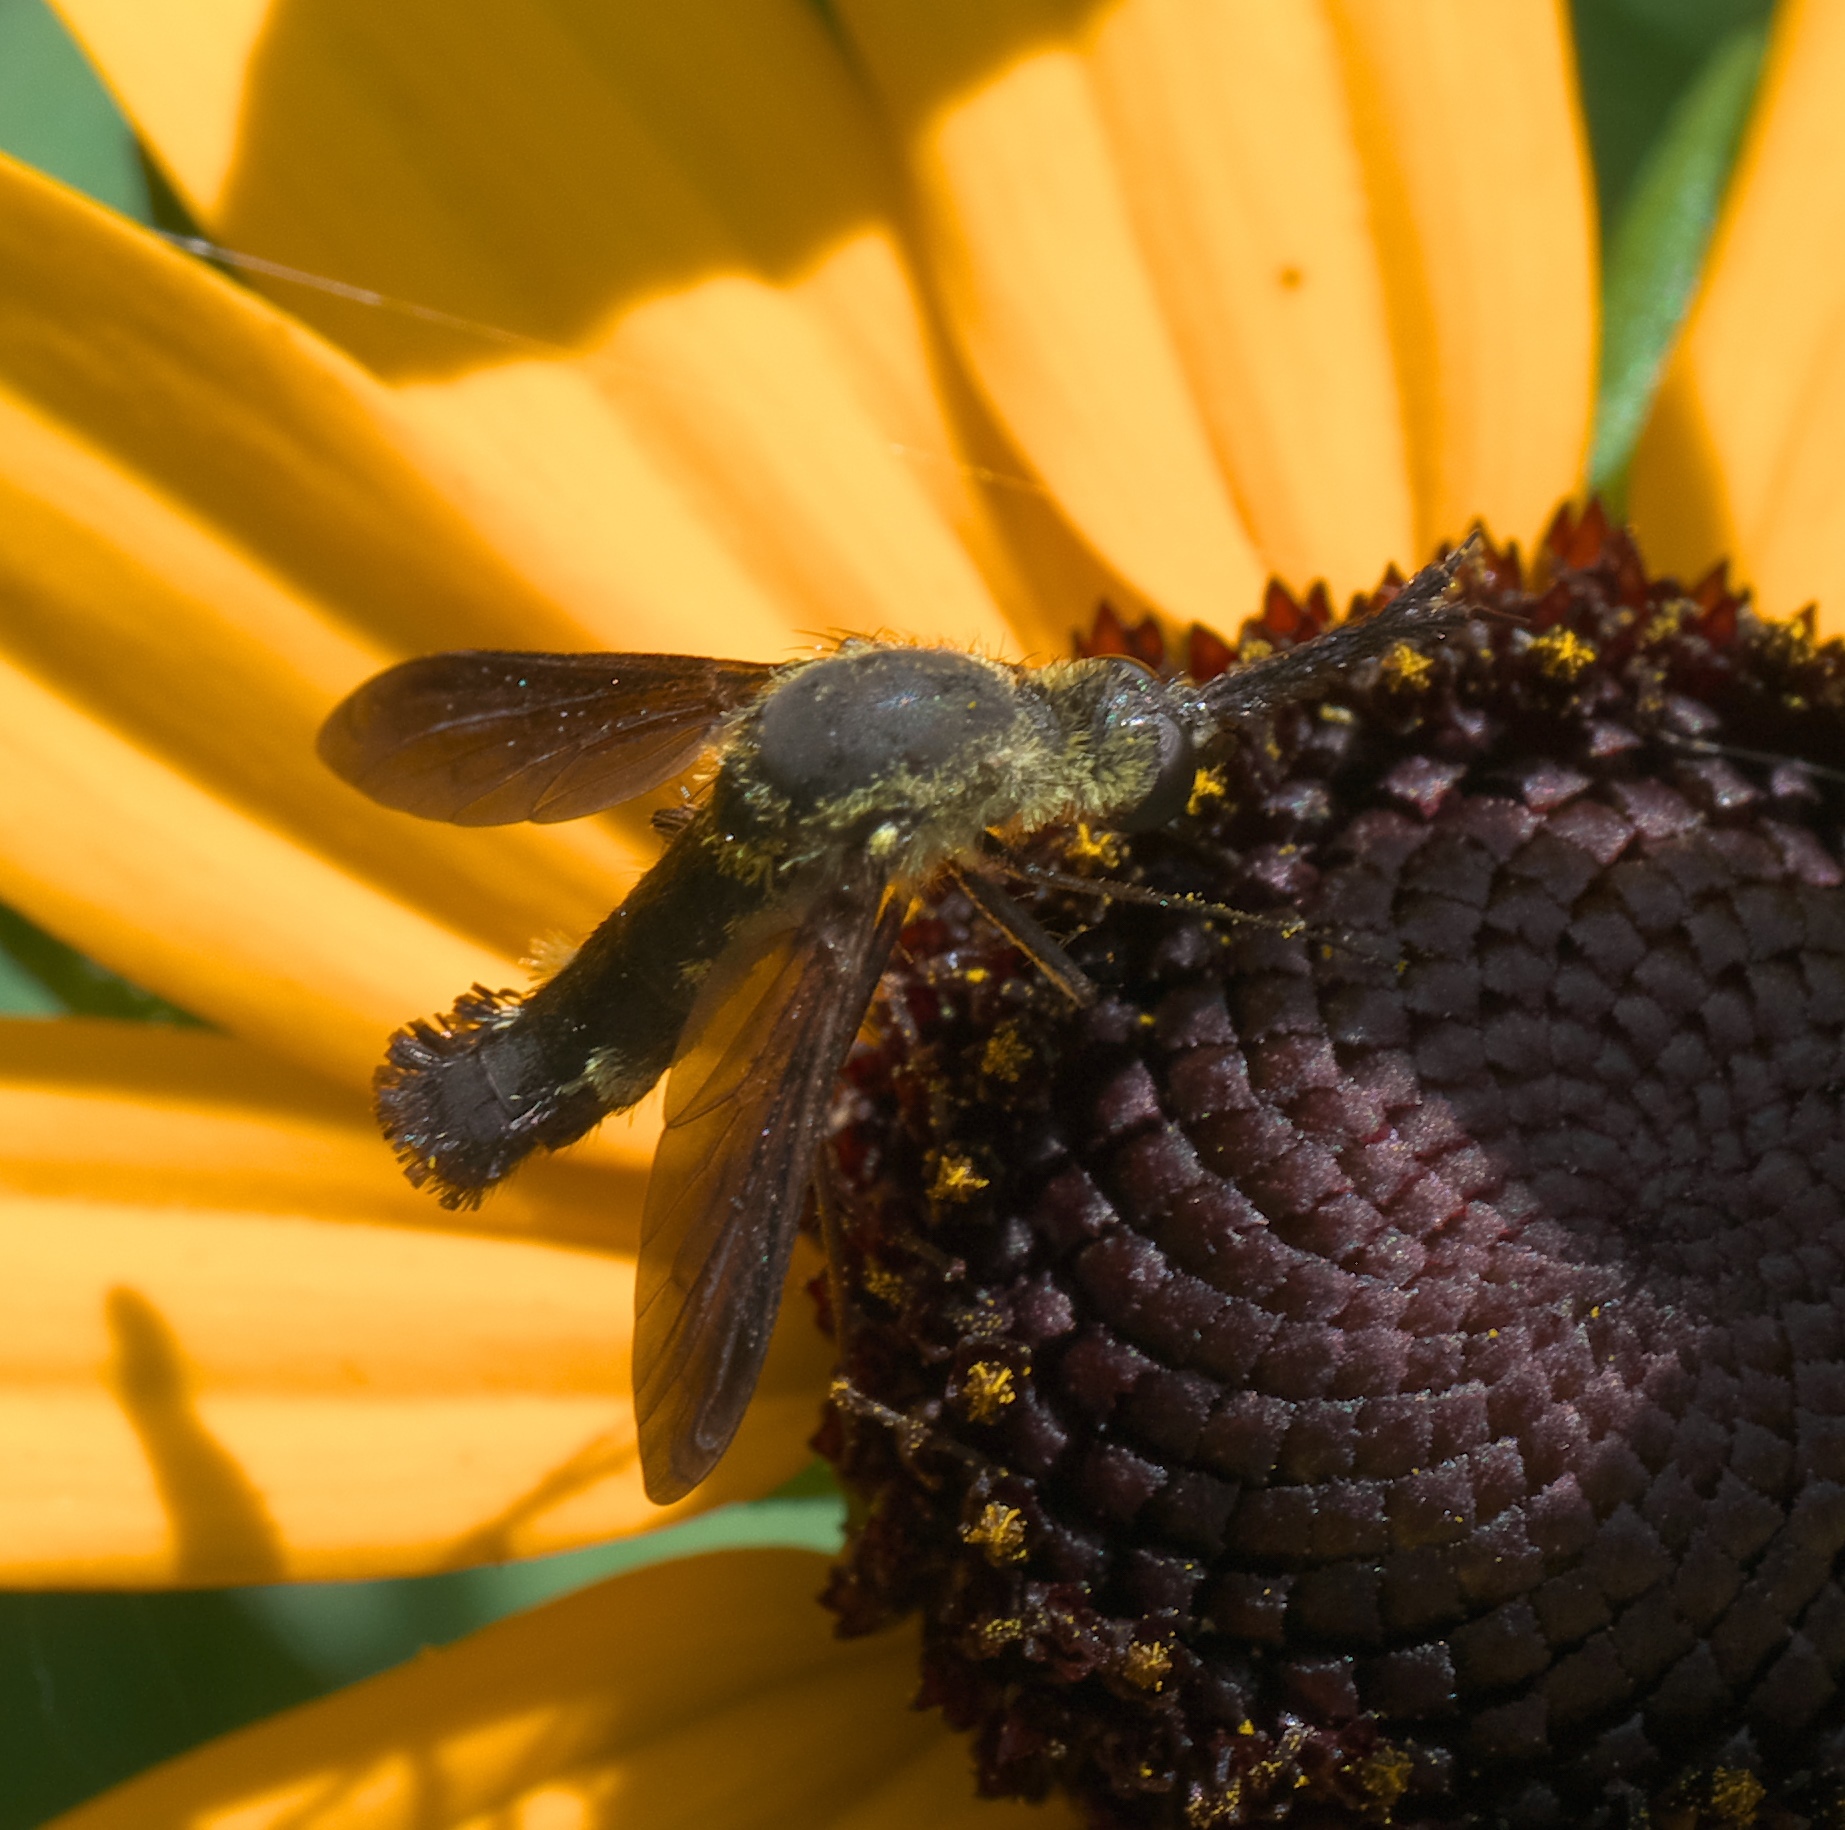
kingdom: Animalia
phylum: Arthropoda
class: Insecta
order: Diptera
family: Bombyliidae
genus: Lepidophora
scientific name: Lepidophora lepidocera
